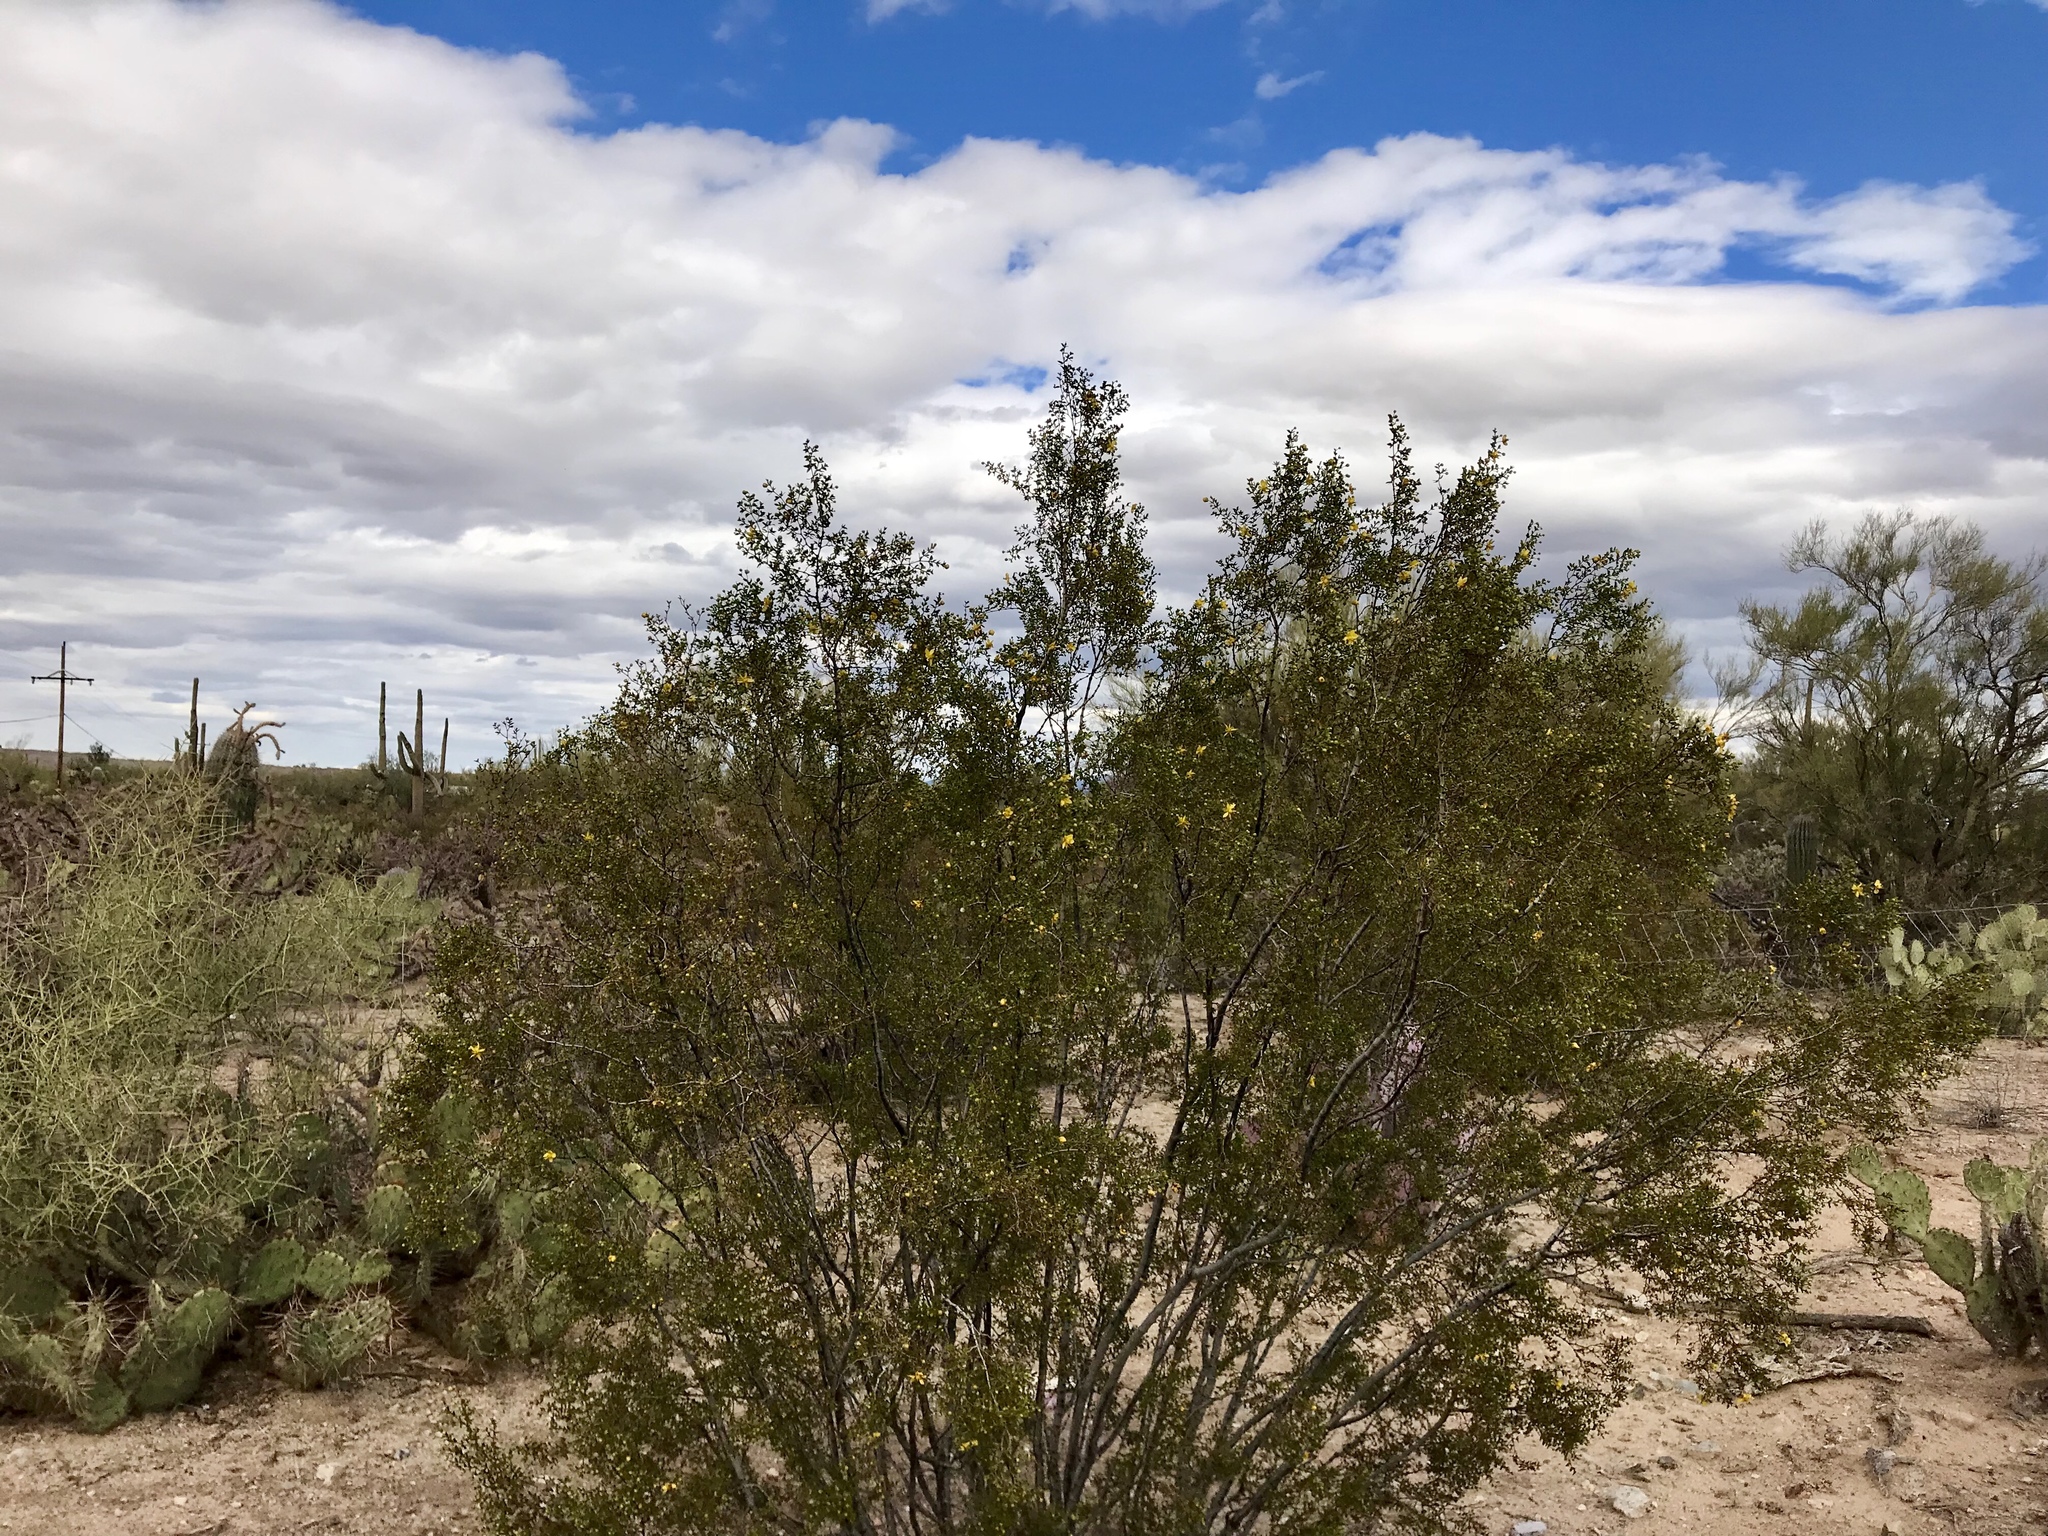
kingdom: Plantae
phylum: Tracheophyta
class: Magnoliopsida
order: Zygophyllales
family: Zygophyllaceae
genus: Larrea
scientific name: Larrea tridentata
